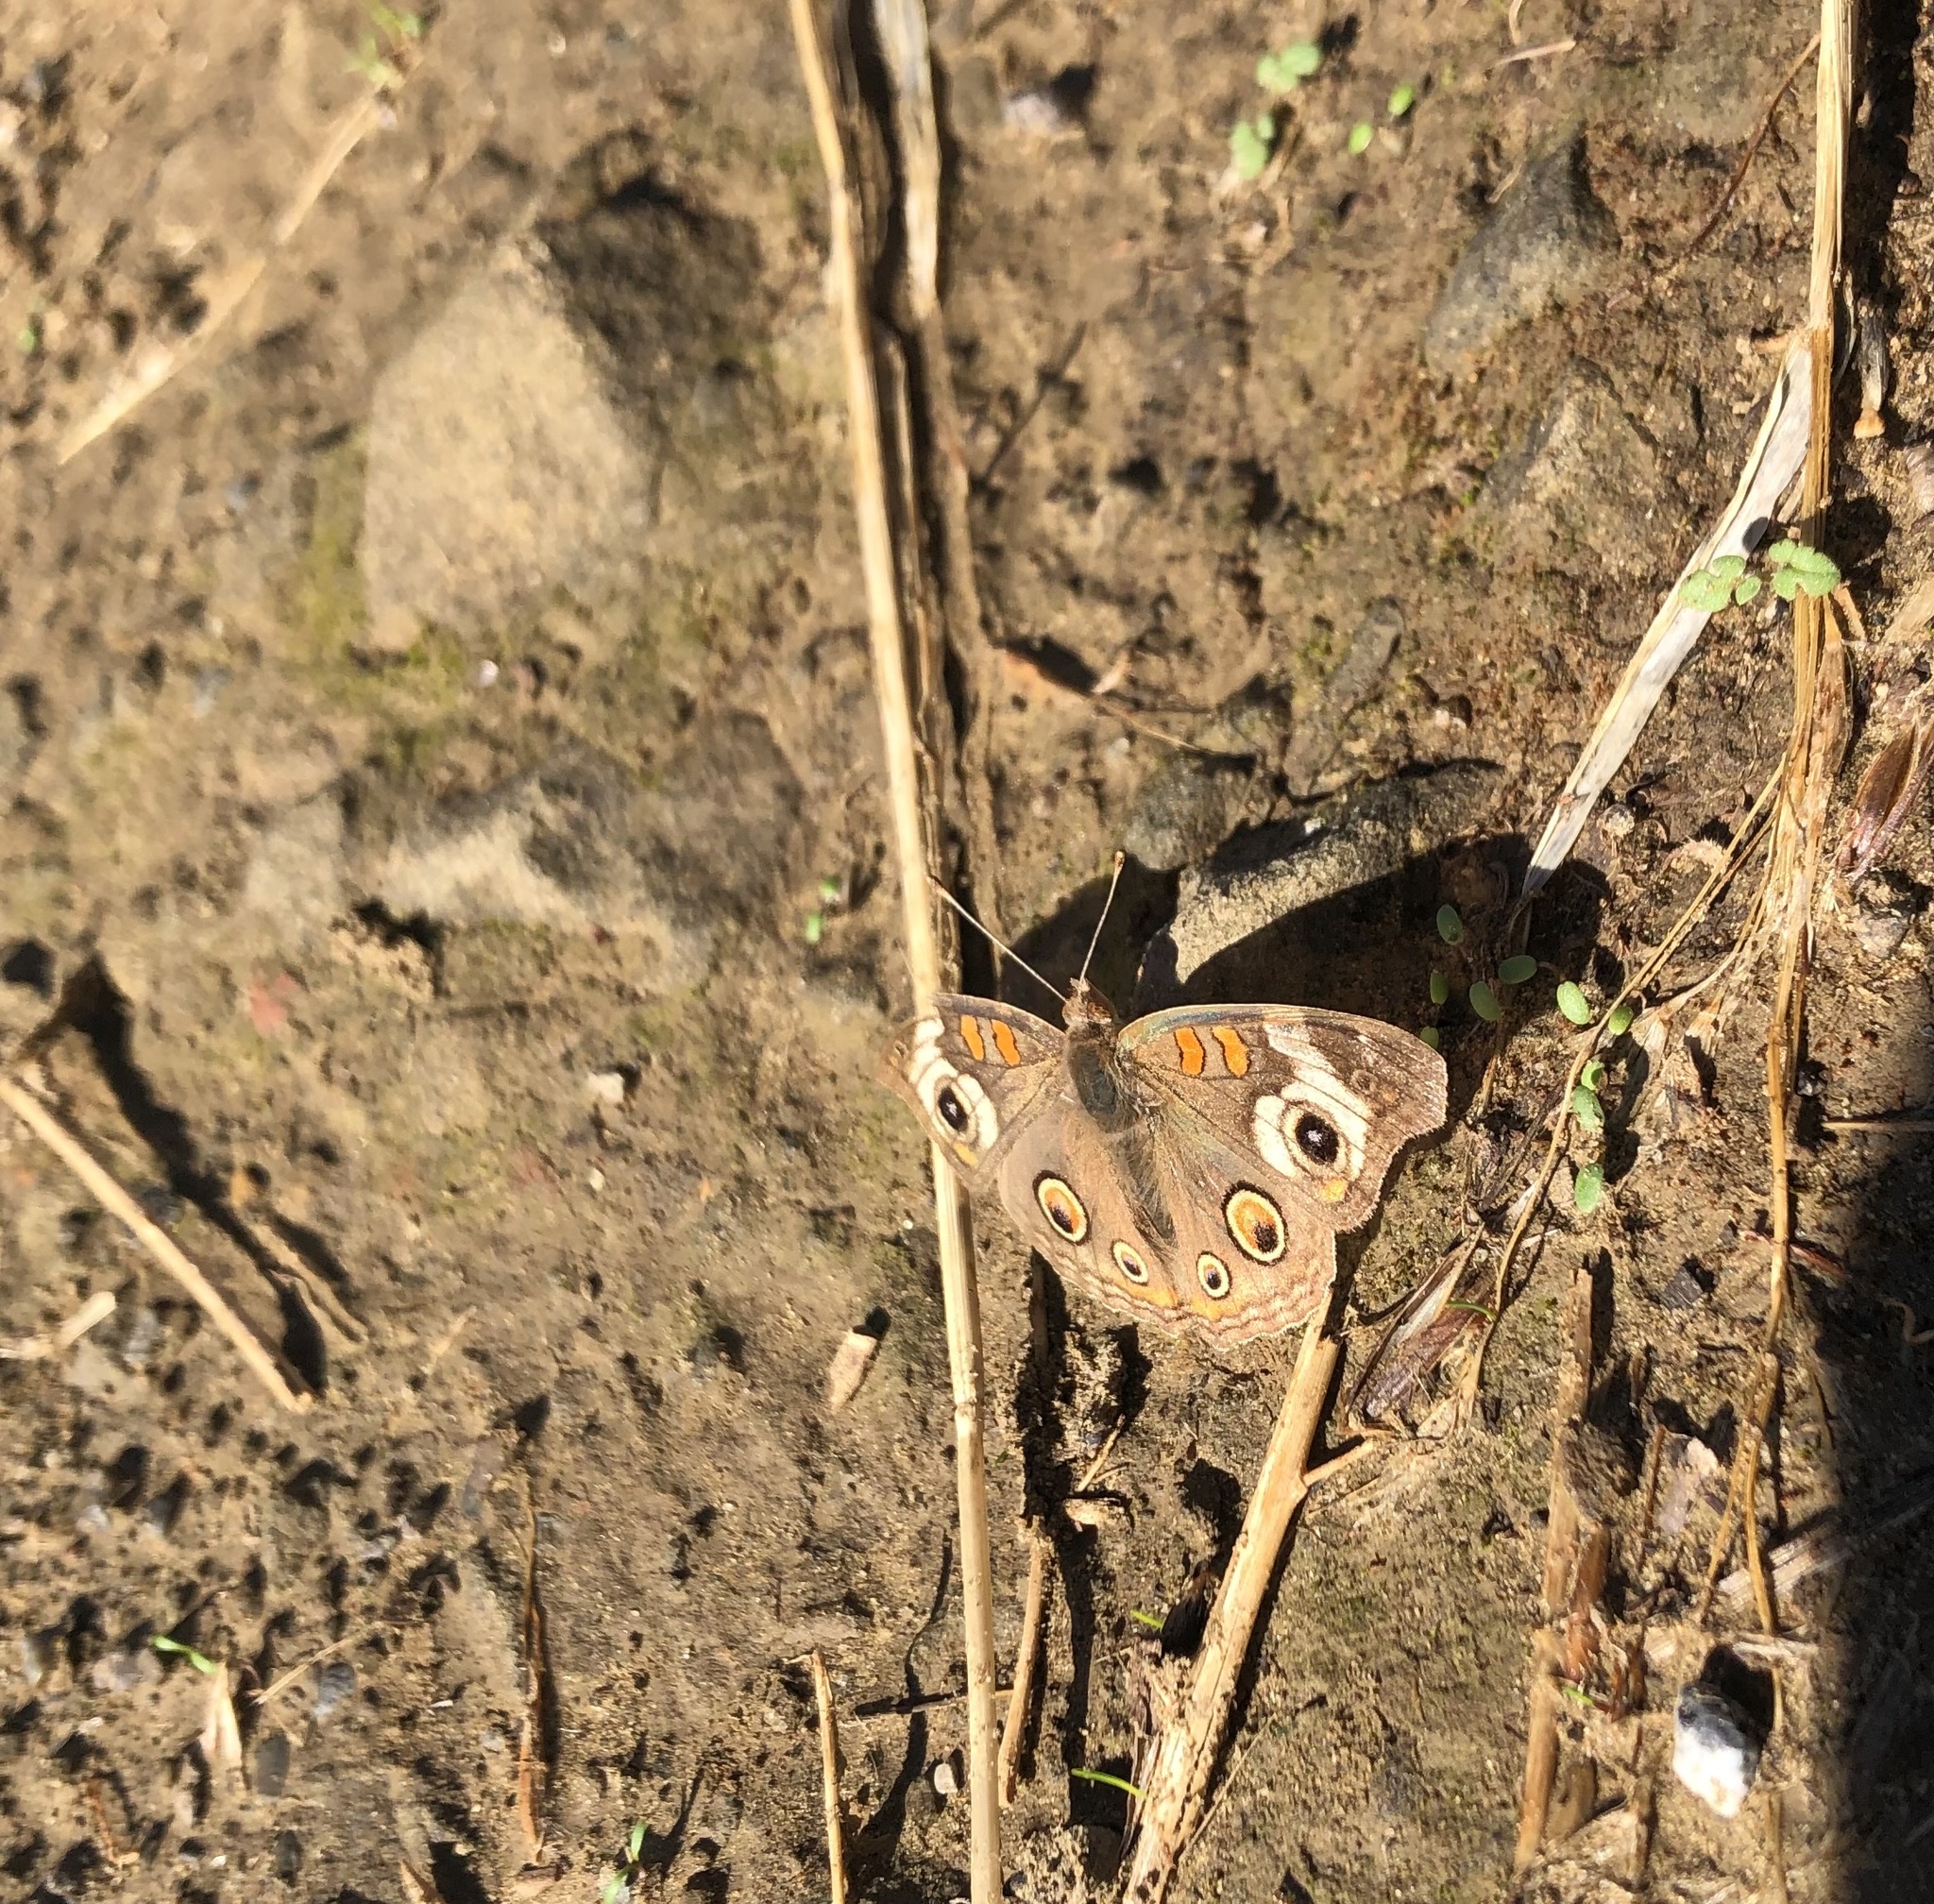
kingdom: Animalia
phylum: Arthropoda
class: Insecta
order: Lepidoptera
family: Nymphalidae
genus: Junonia
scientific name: Junonia grisea
